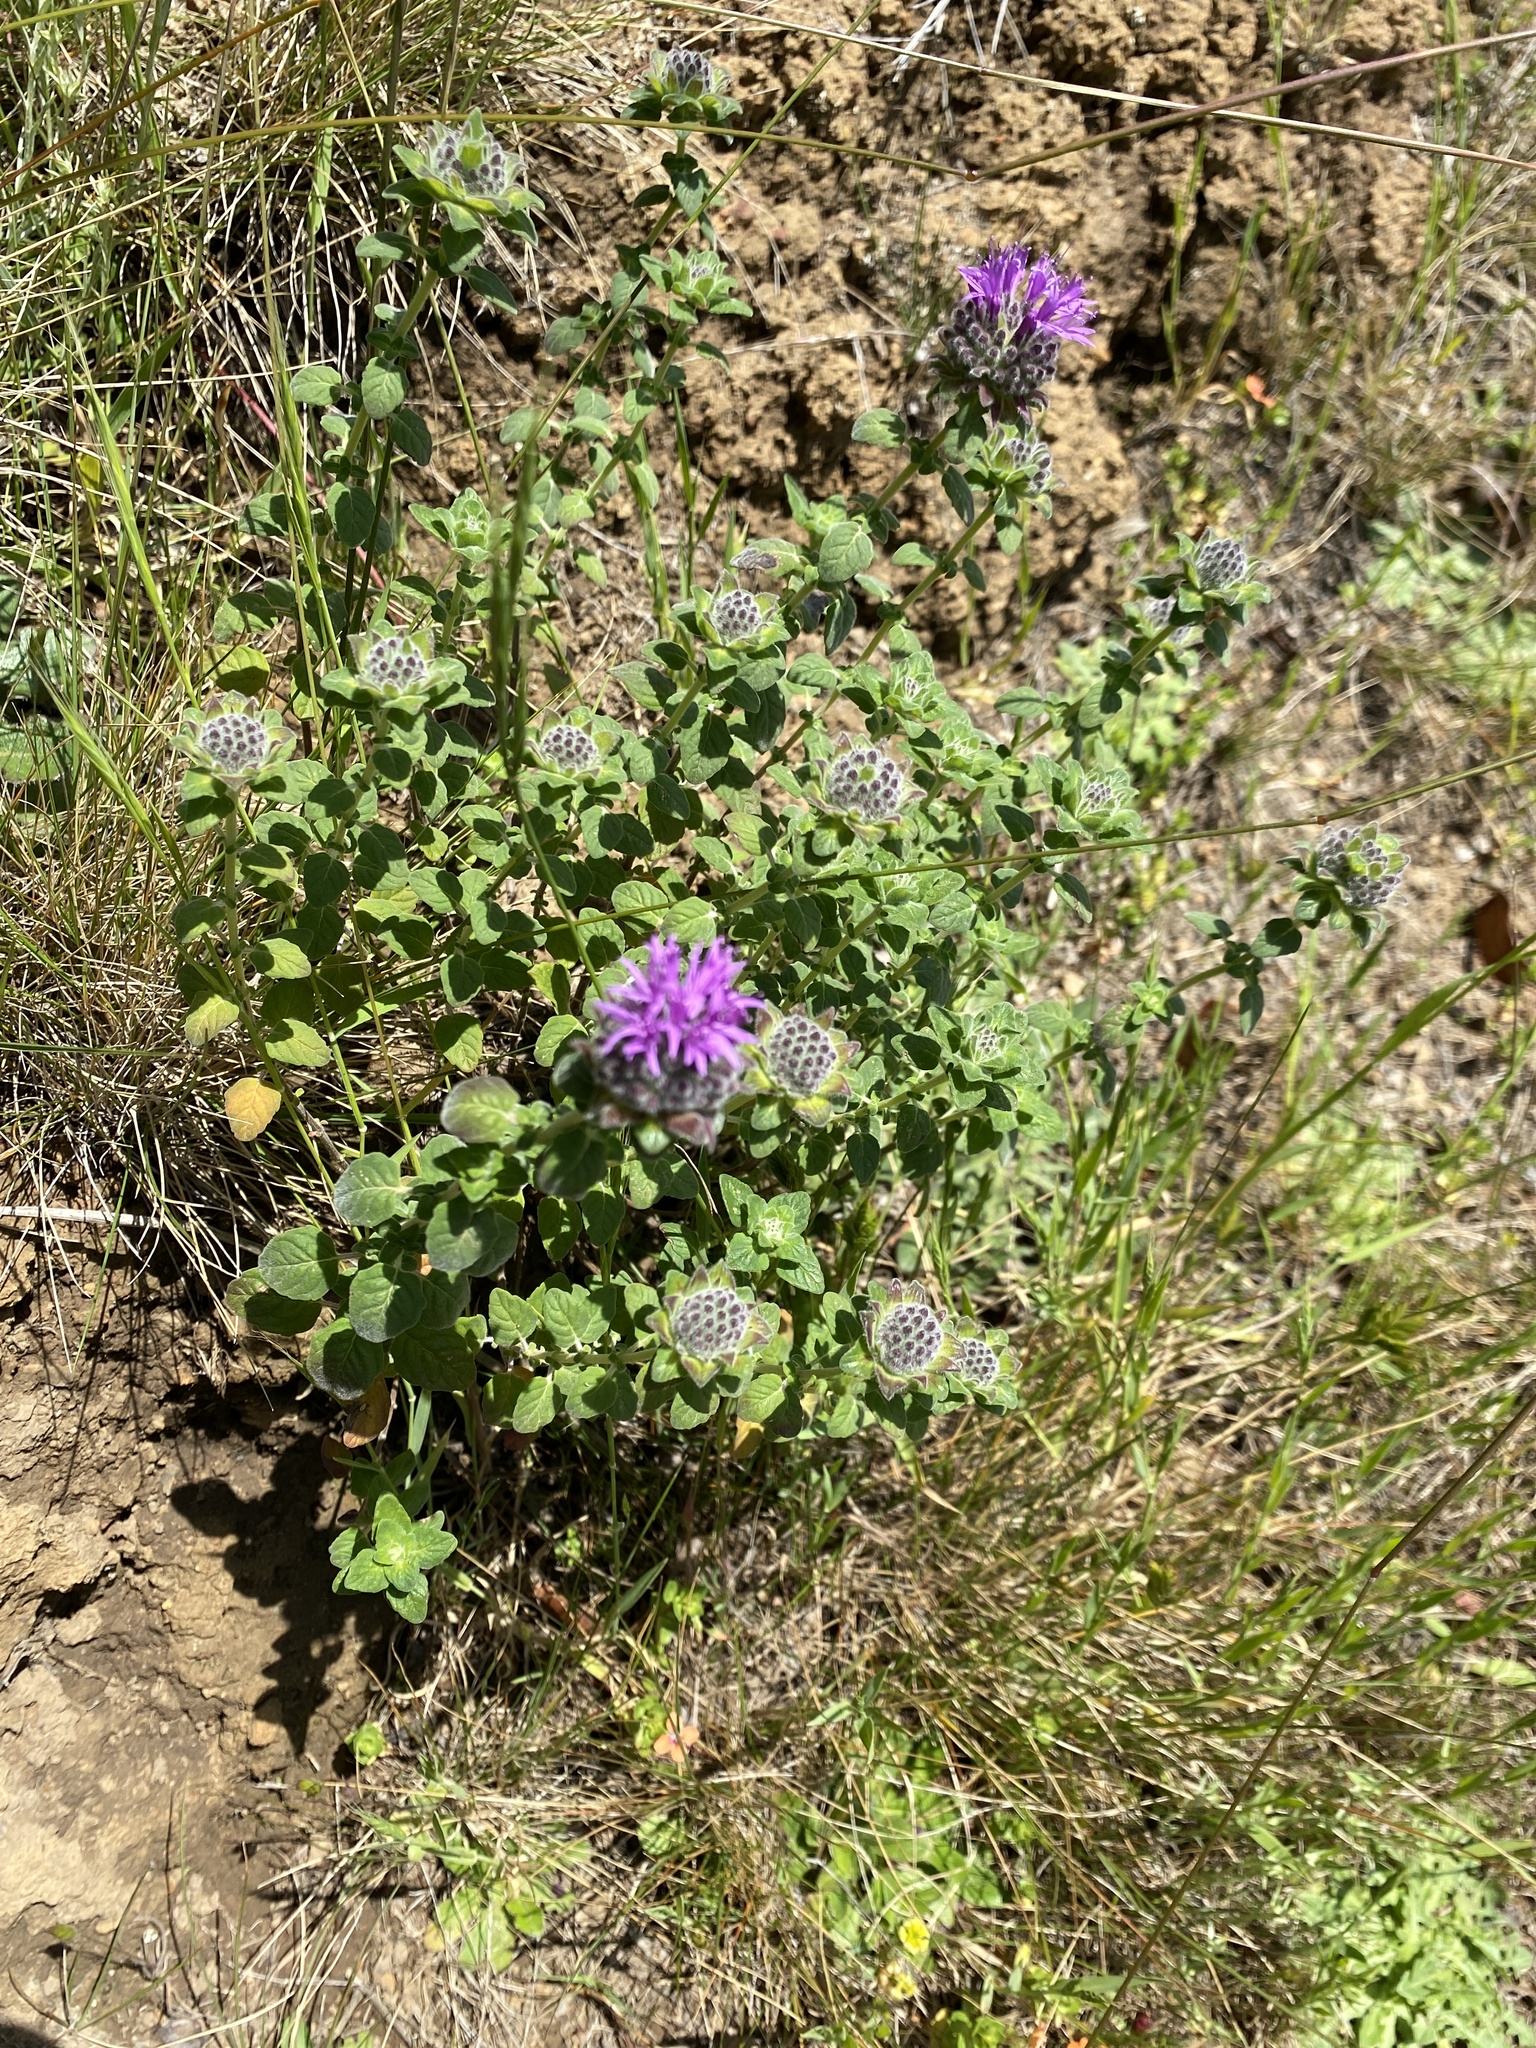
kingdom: Plantae
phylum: Tracheophyta
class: Magnoliopsida
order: Lamiales
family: Lamiaceae
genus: Monardella
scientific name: Monardella odoratissima
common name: Pacific monardella
